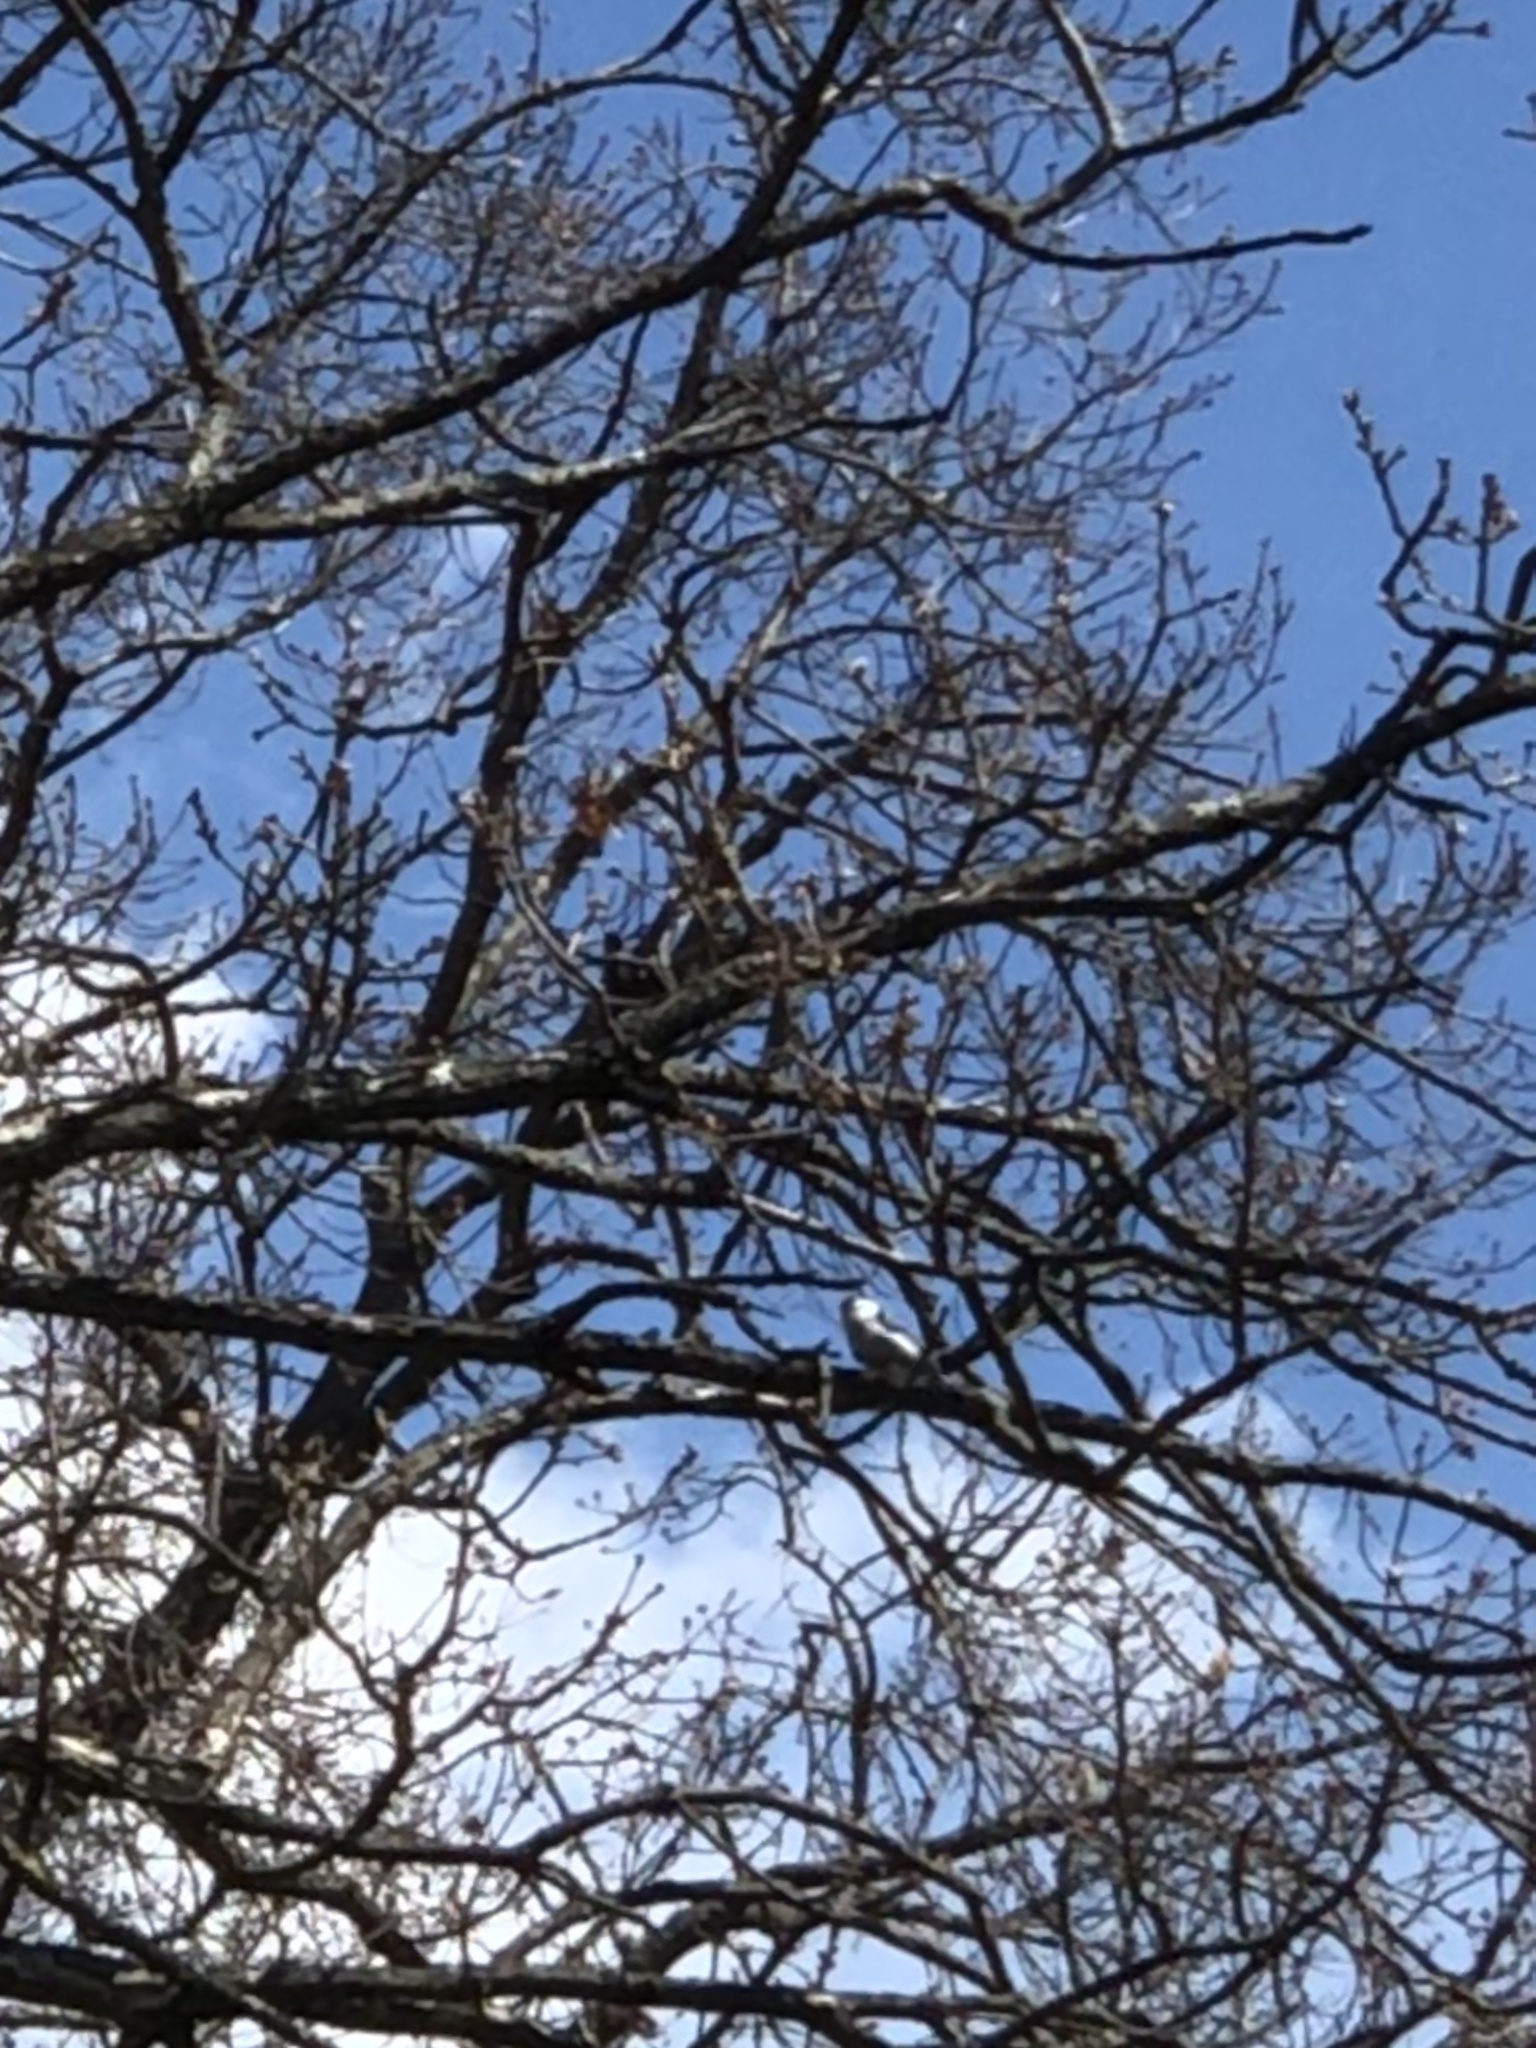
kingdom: Animalia
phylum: Chordata
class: Aves
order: Passeriformes
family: Sittidae
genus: Sitta
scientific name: Sitta carolinensis
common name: White-breasted nuthatch
